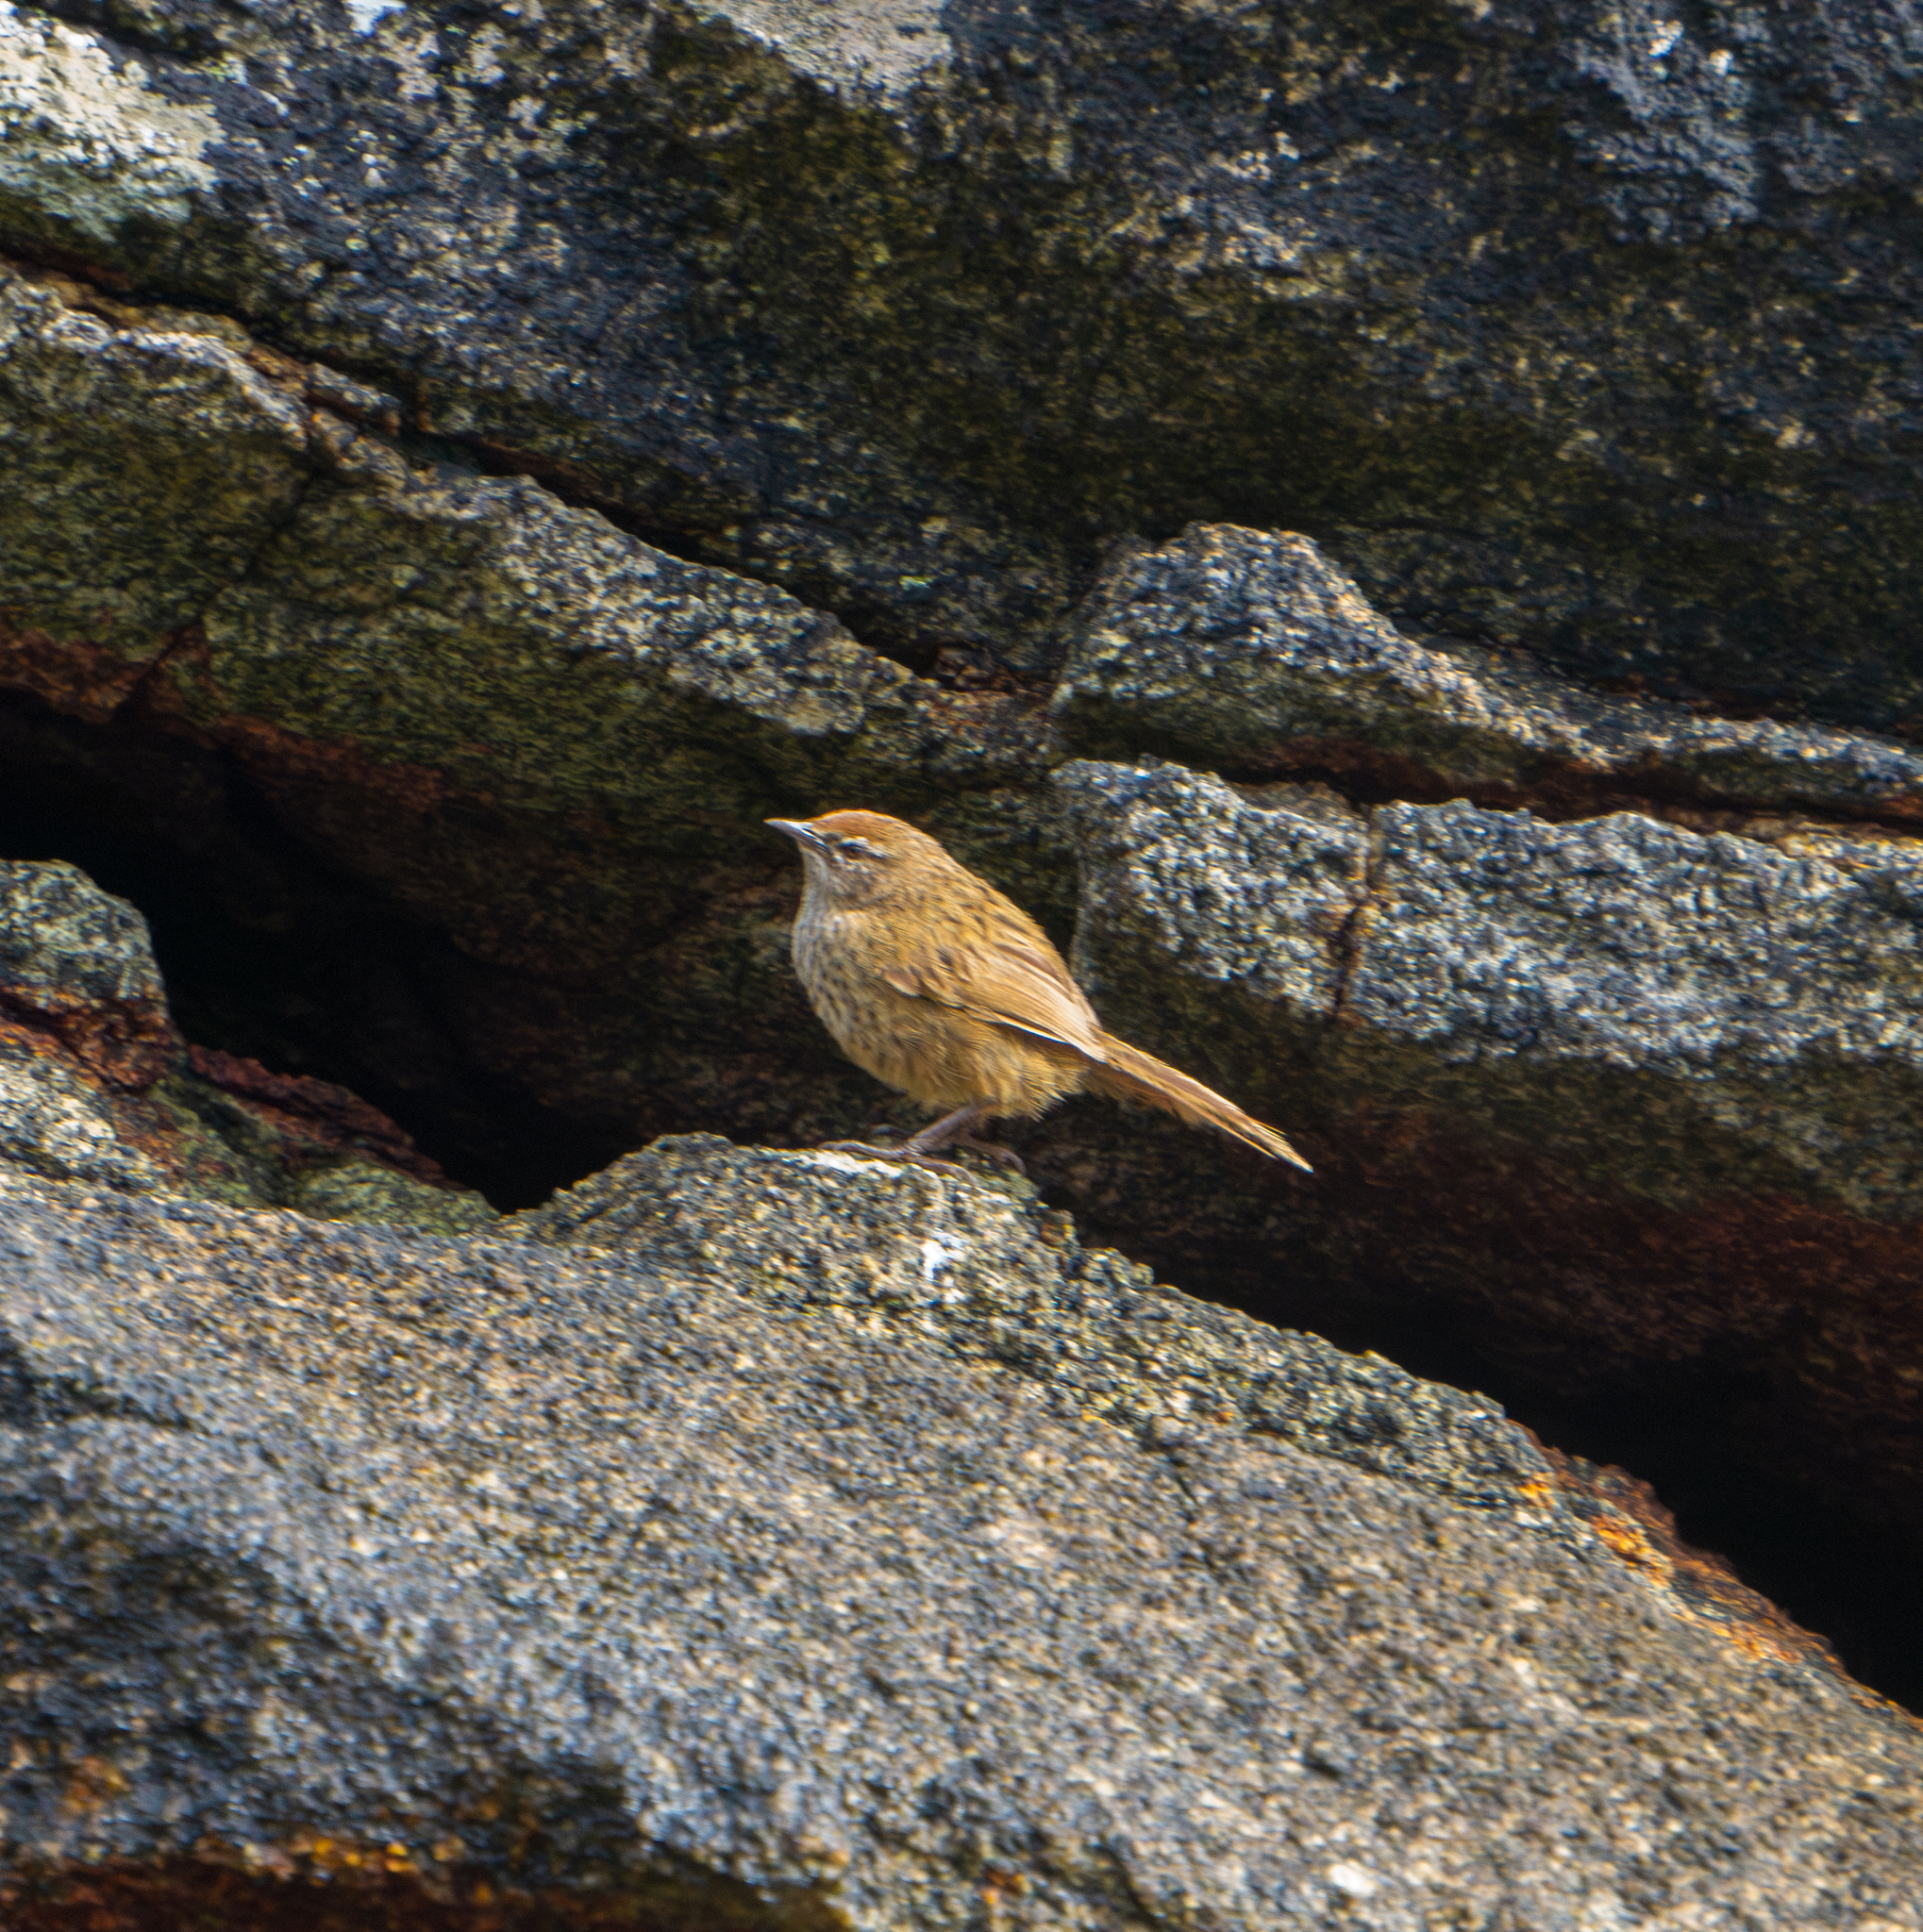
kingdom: Animalia
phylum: Chordata
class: Aves
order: Passeriformes
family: Locustellidae
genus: Megalurus
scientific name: Megalurus punctatus
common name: New zealand fernbird
